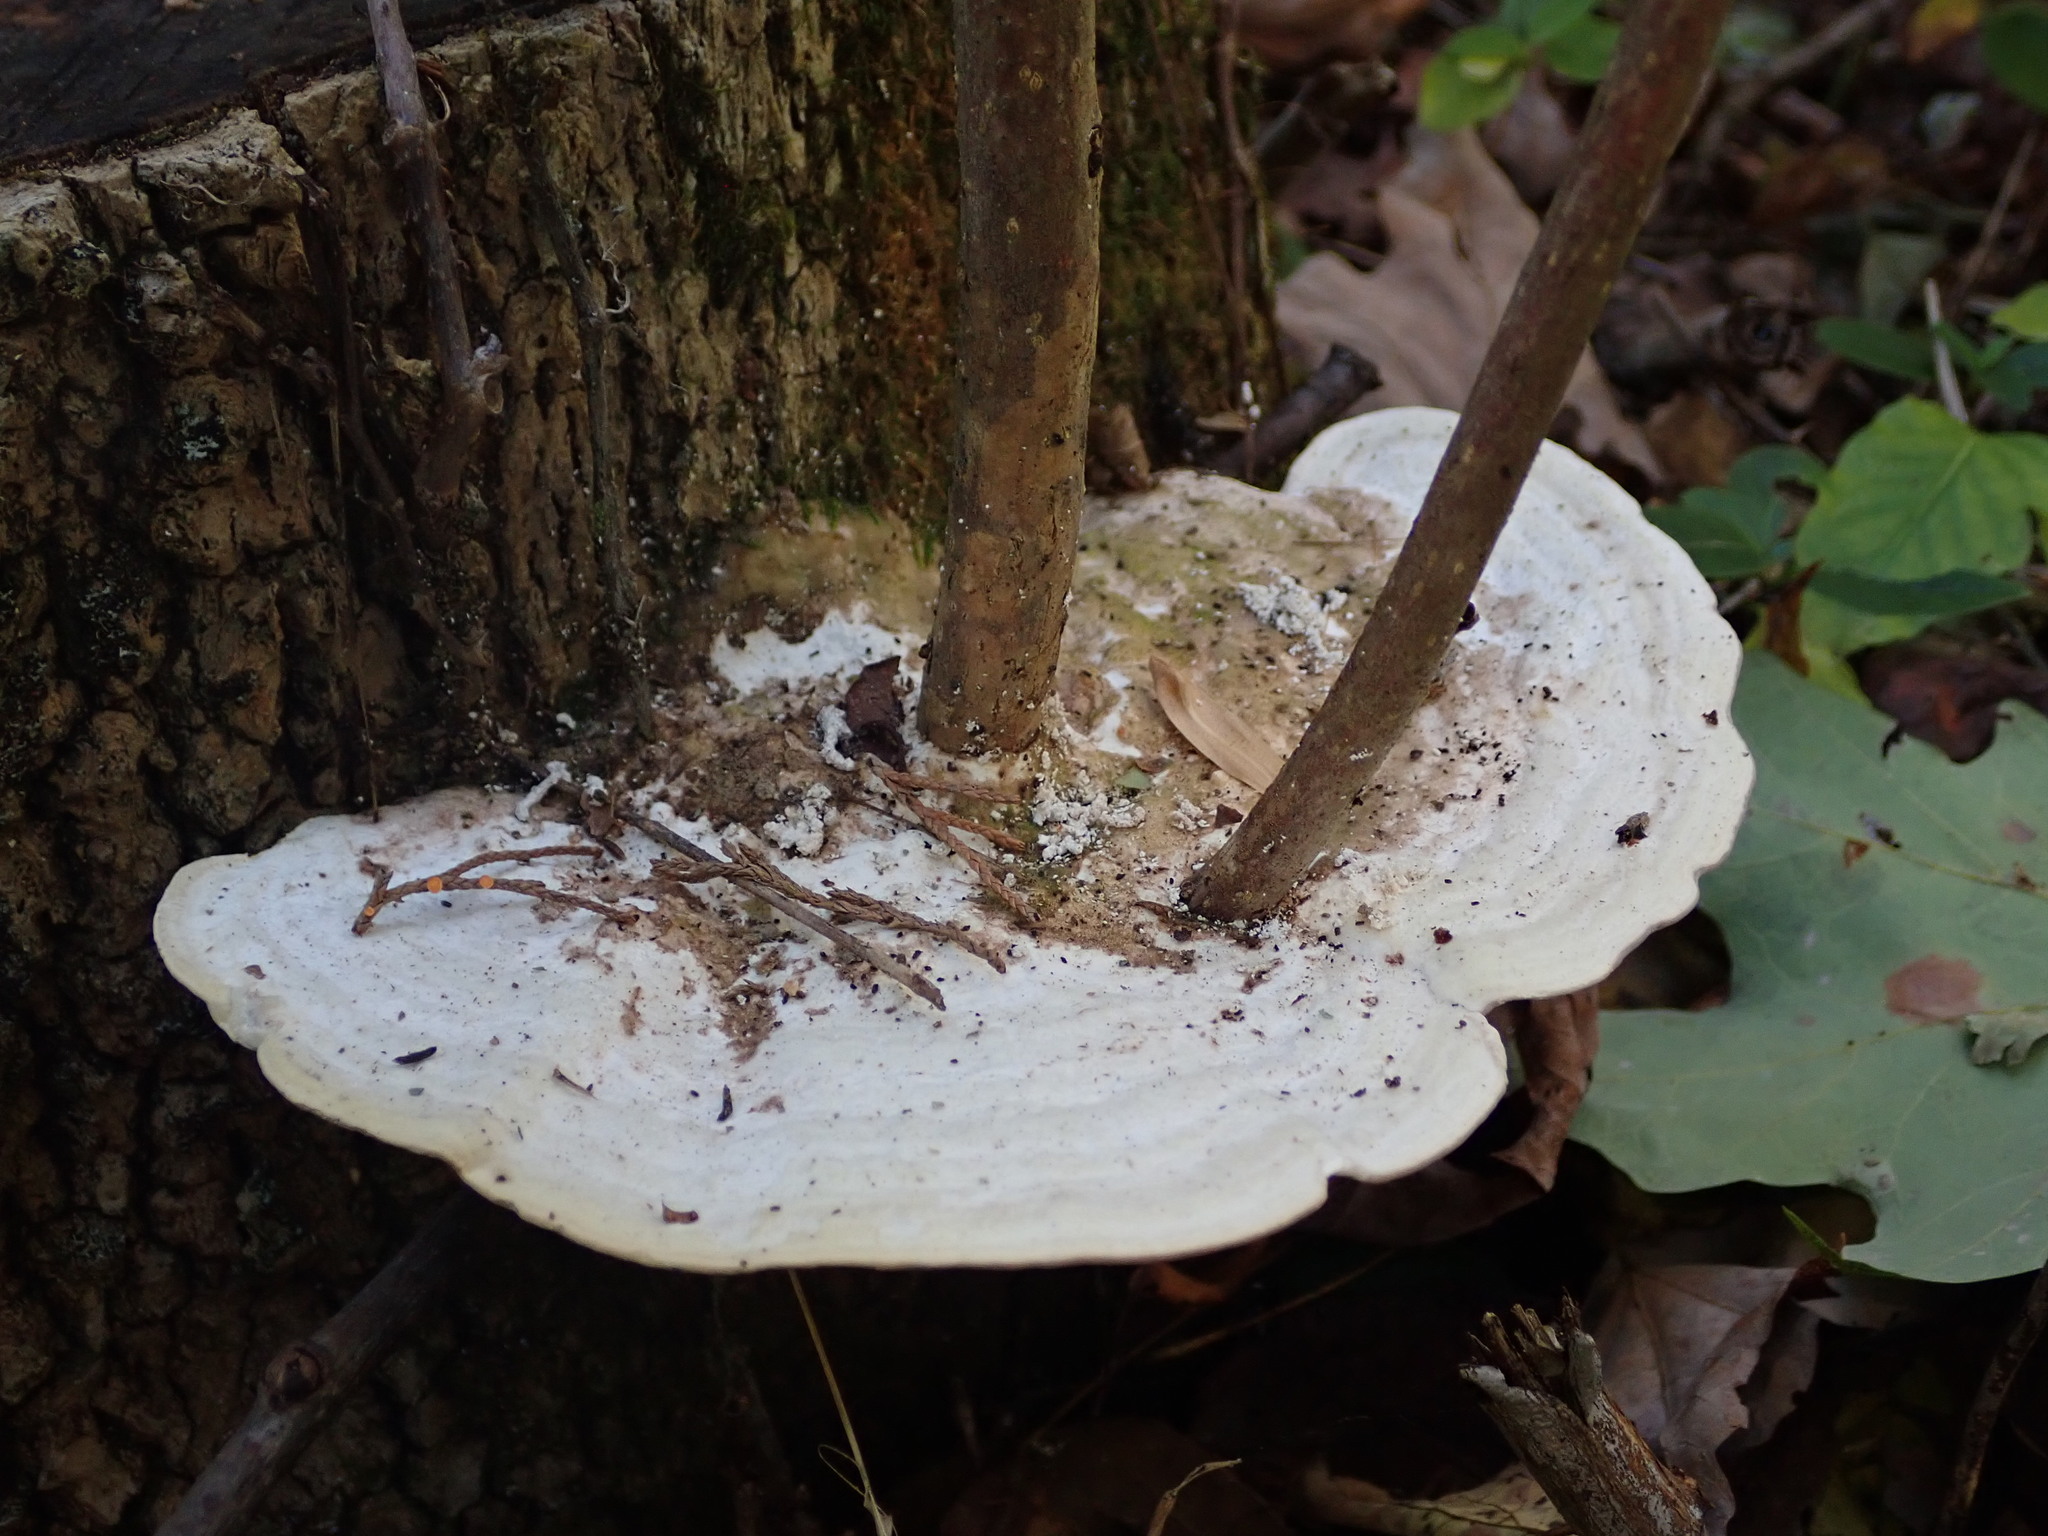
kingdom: Fungi
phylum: Basidiomycota
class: Agaricomycetes
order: Polyporales
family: Polyporaceae
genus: Trametes
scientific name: Trametes gibbosa
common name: Lumpy bracket
